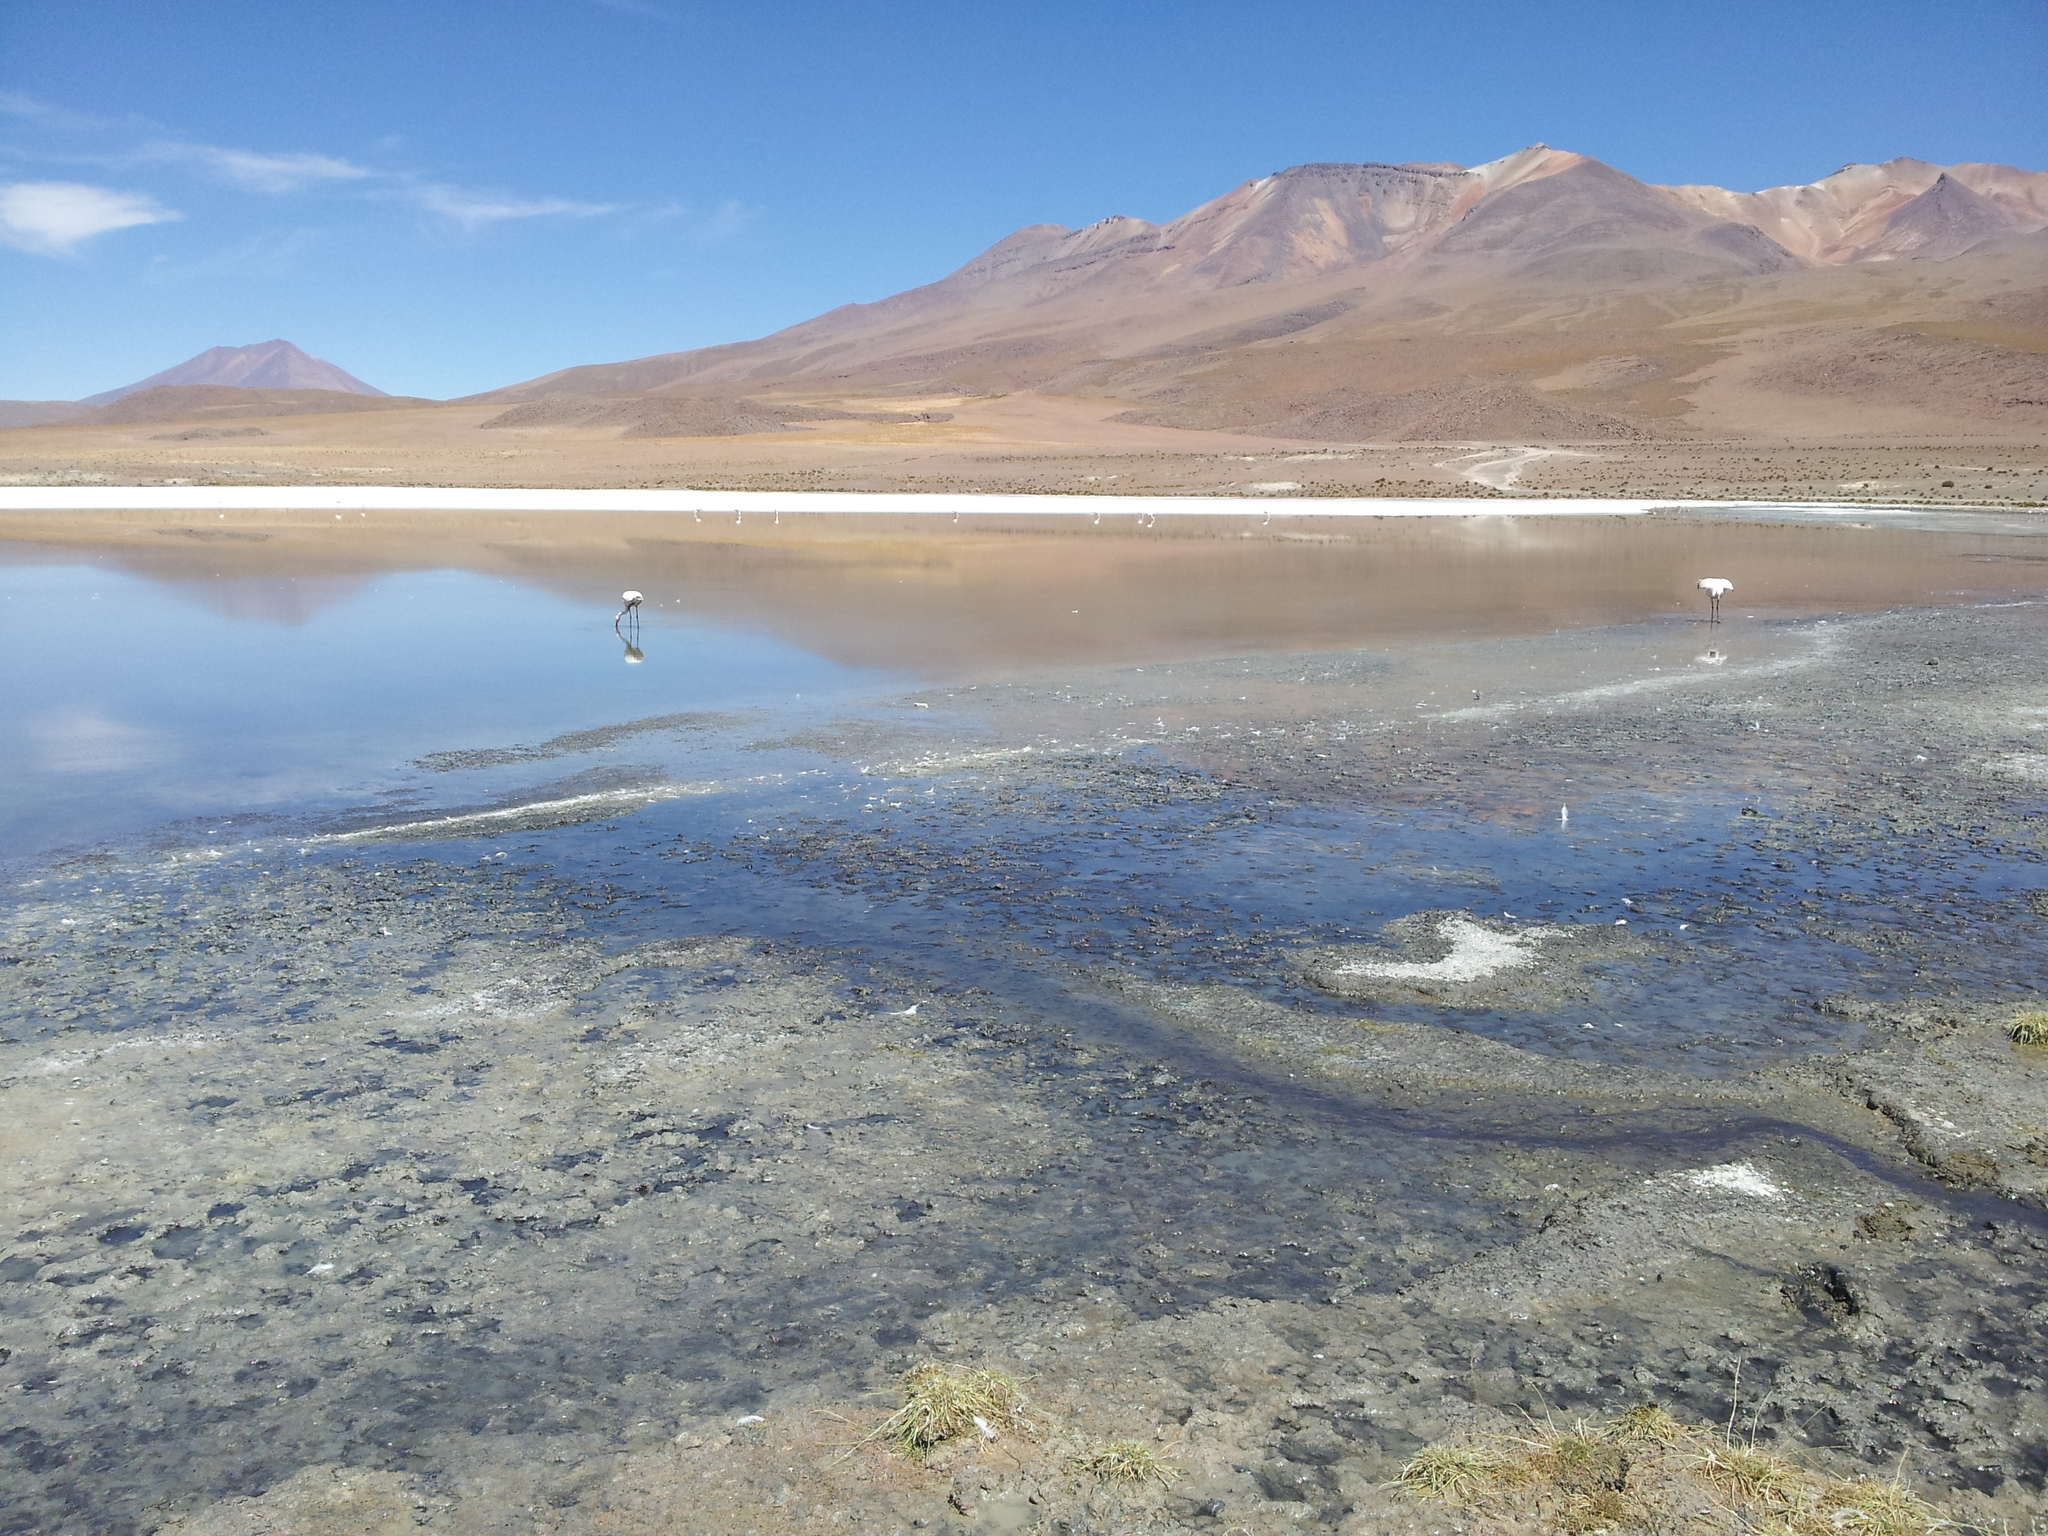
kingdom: Animalia
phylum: Chordata
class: Aves
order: Phoenicopteriformes
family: Phoenicopteridae
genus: Phoenicoparrus
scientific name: Phoenicoparrus jamesi
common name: James's flamingo
